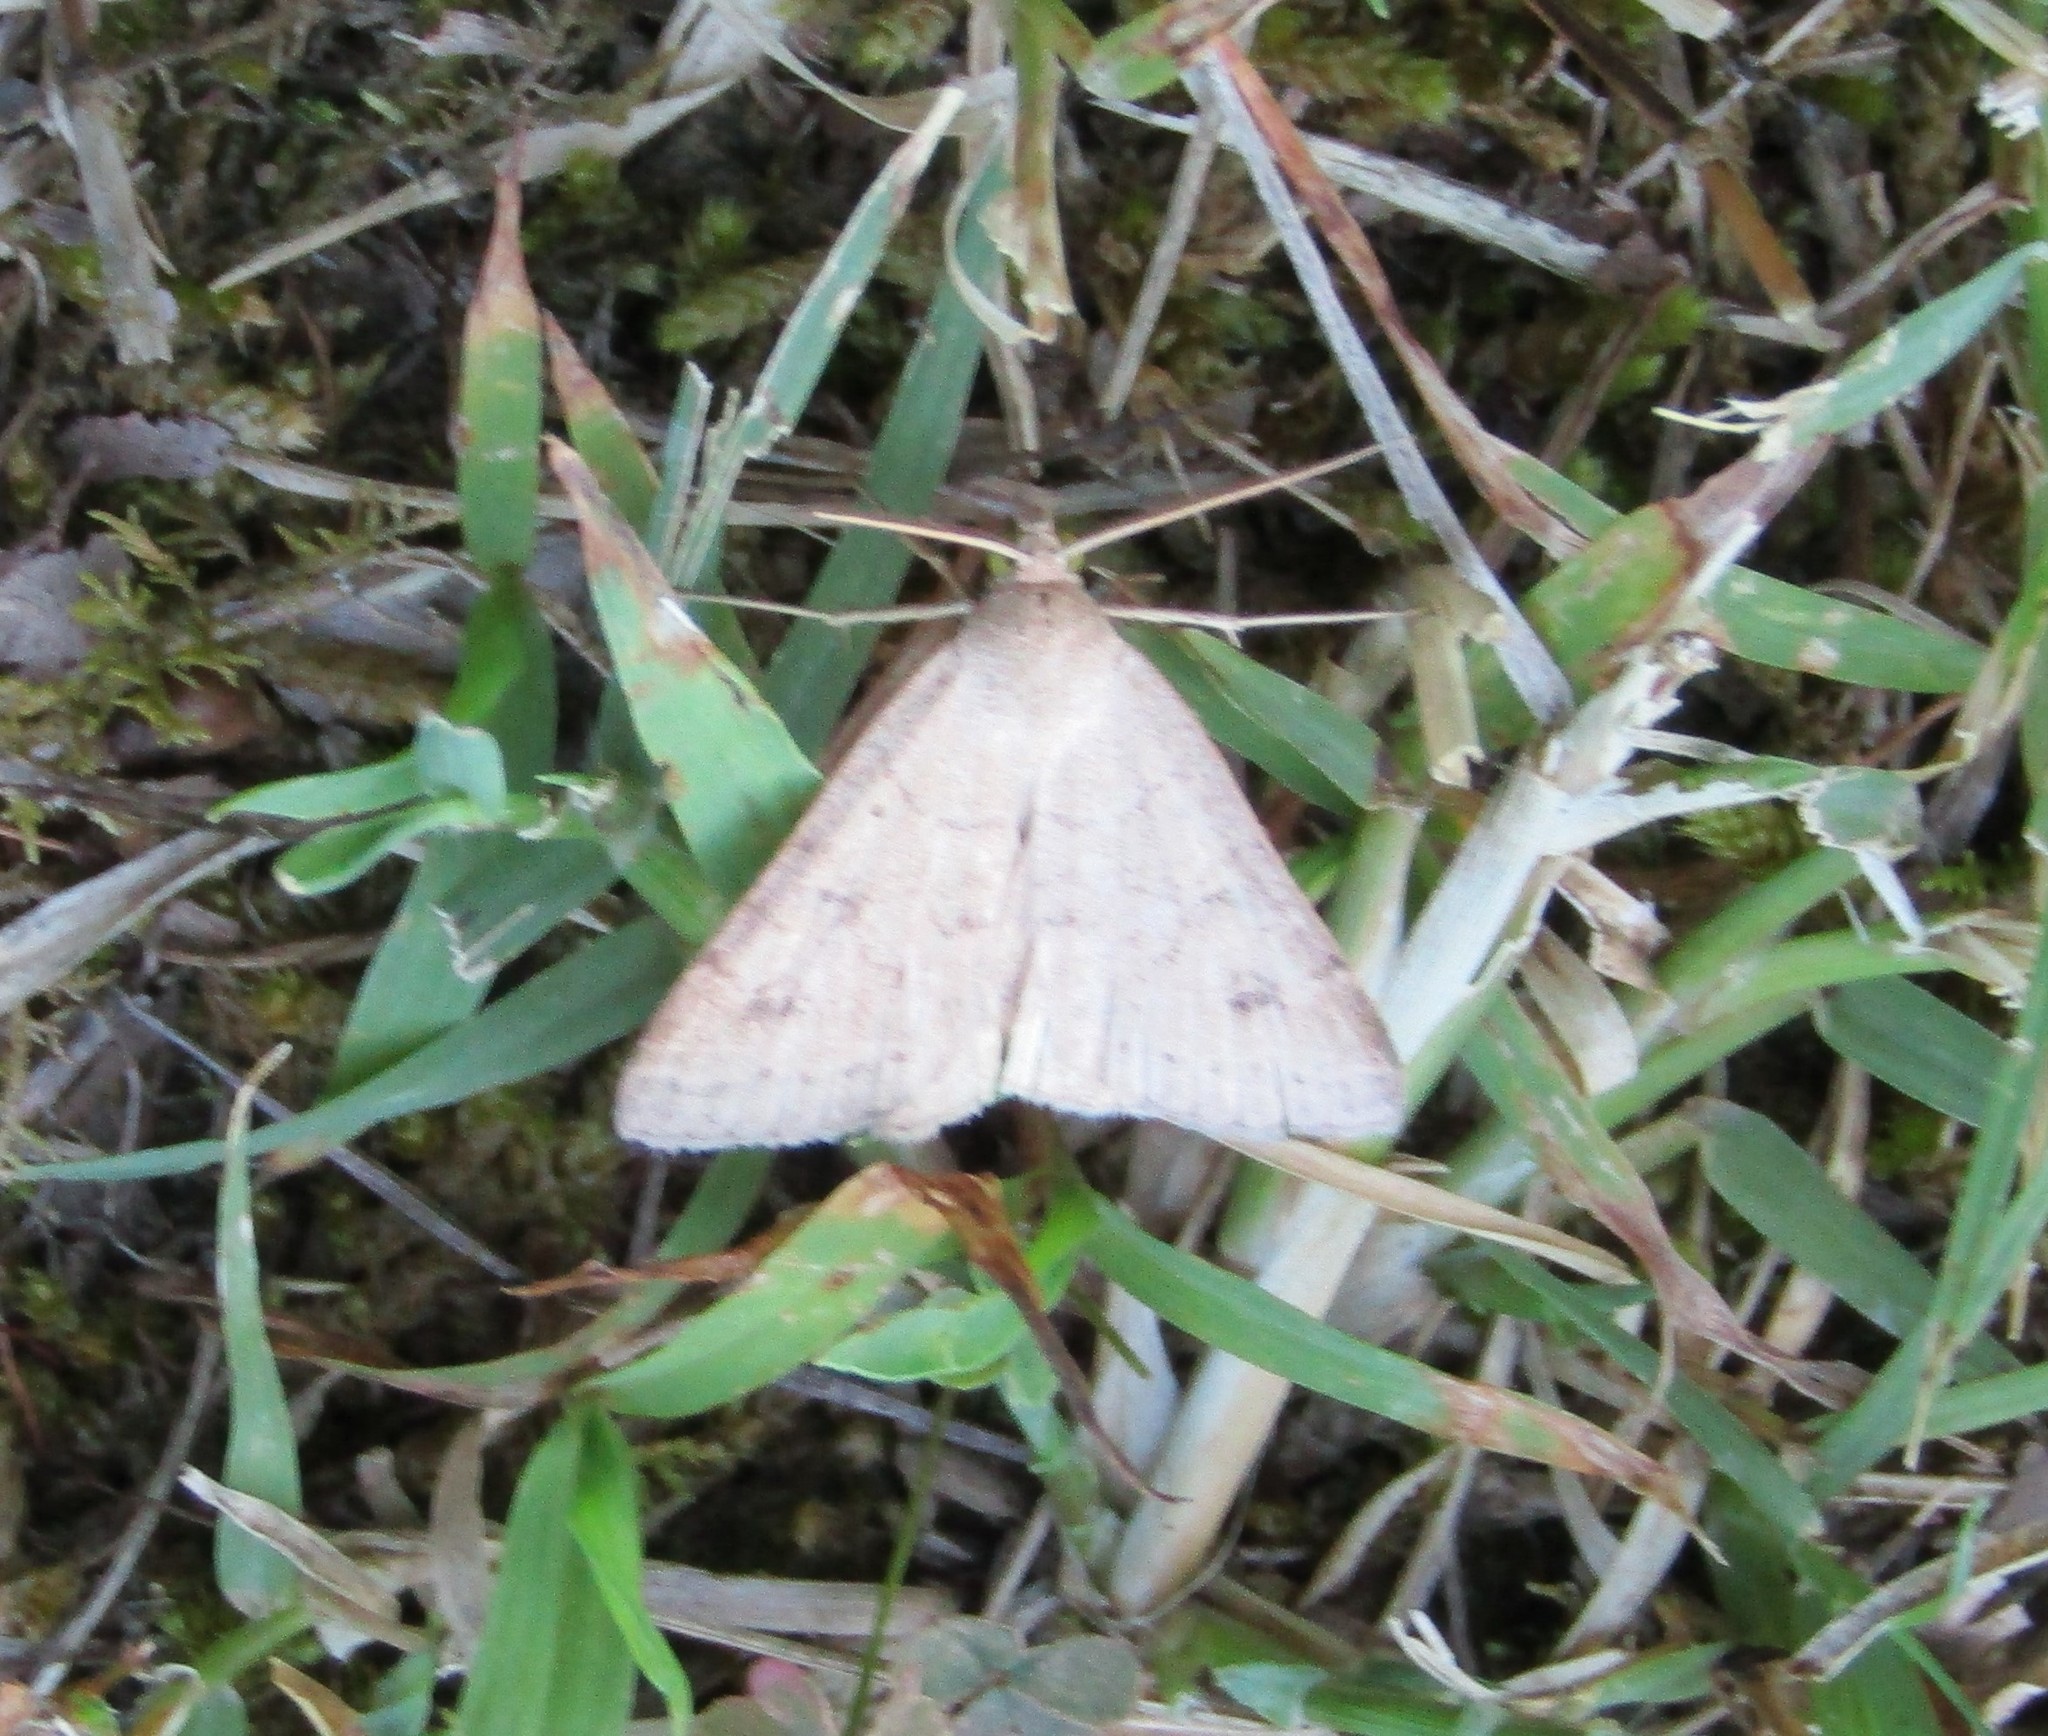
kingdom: Animalia
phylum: Arthropoda
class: Insecta
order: Lepidoptera
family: Erebidae
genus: Caenurgia
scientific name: Caenurgia chloropha
